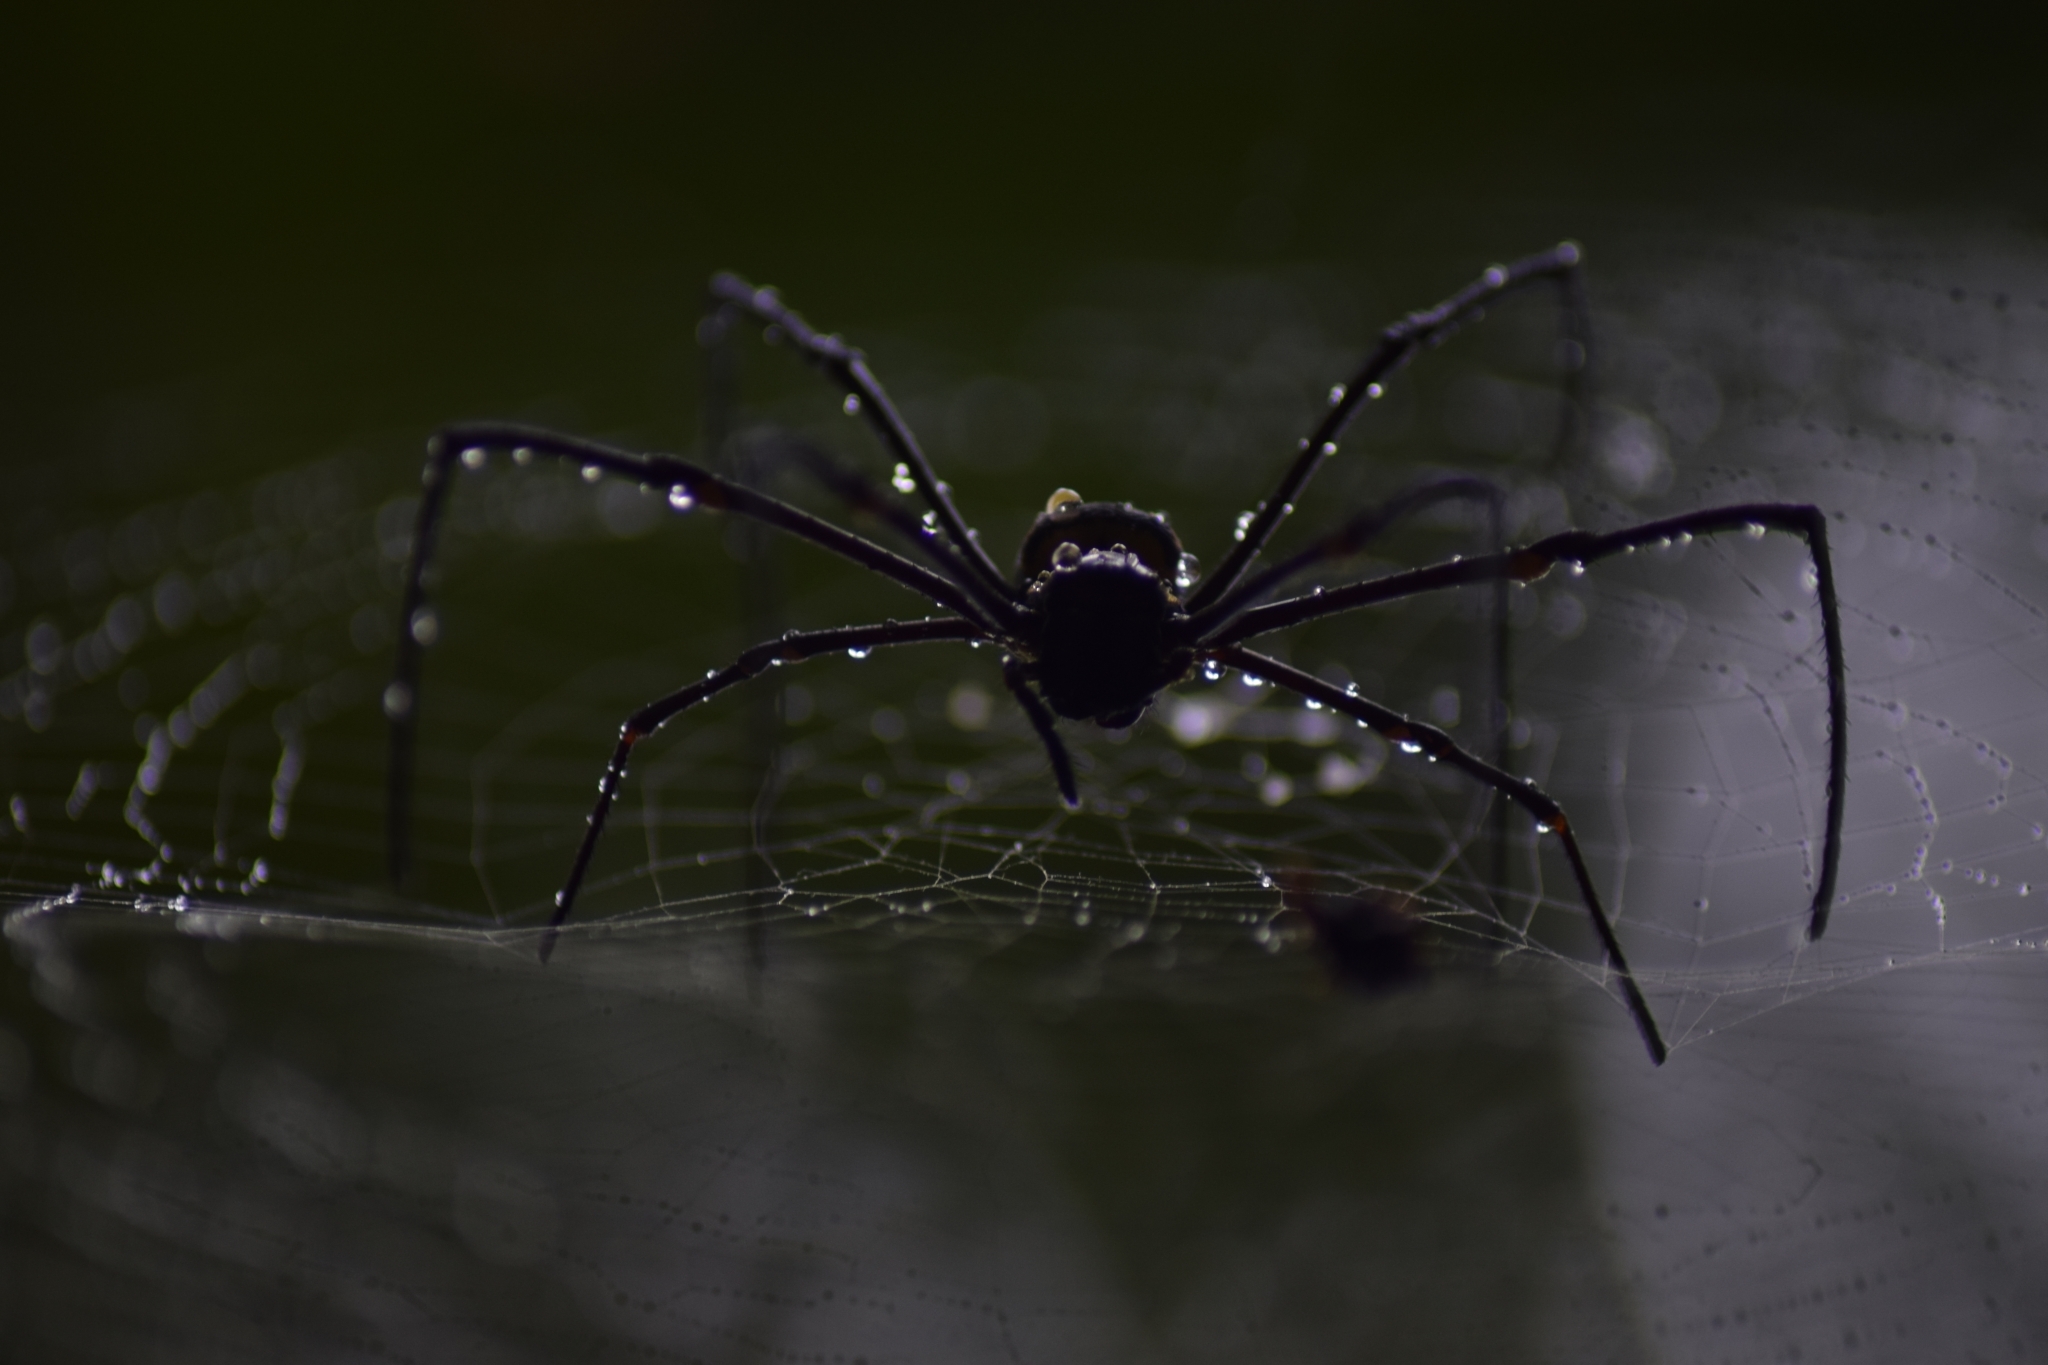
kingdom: Animalia
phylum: Arthropoda
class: Arachnida
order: Araneae
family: Araneidae
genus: Nephila
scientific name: Nephila pilipes
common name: Giant golden orb weaver
